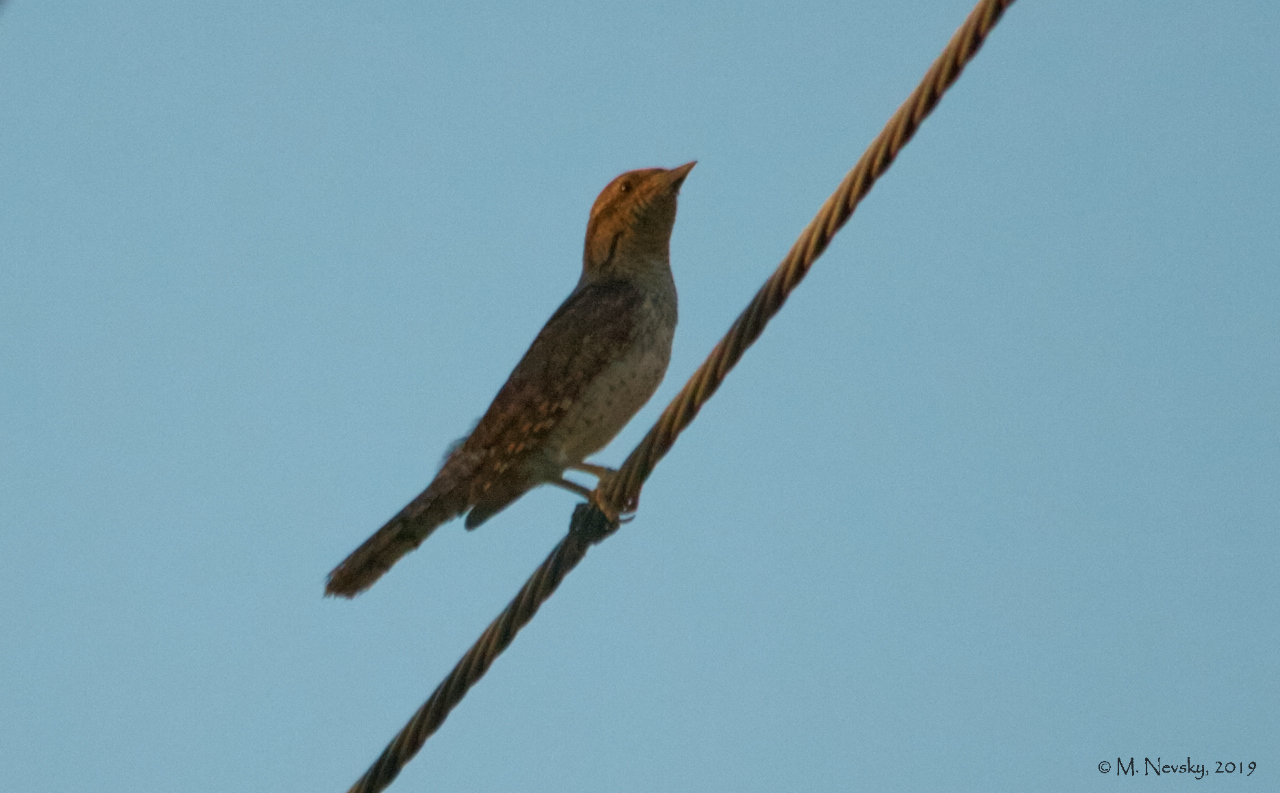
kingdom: Animalia
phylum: Chordata
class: Aves
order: Piciformes
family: Picidae
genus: Jynx
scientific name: Jynx torquilla
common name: Eurasian wryneck
